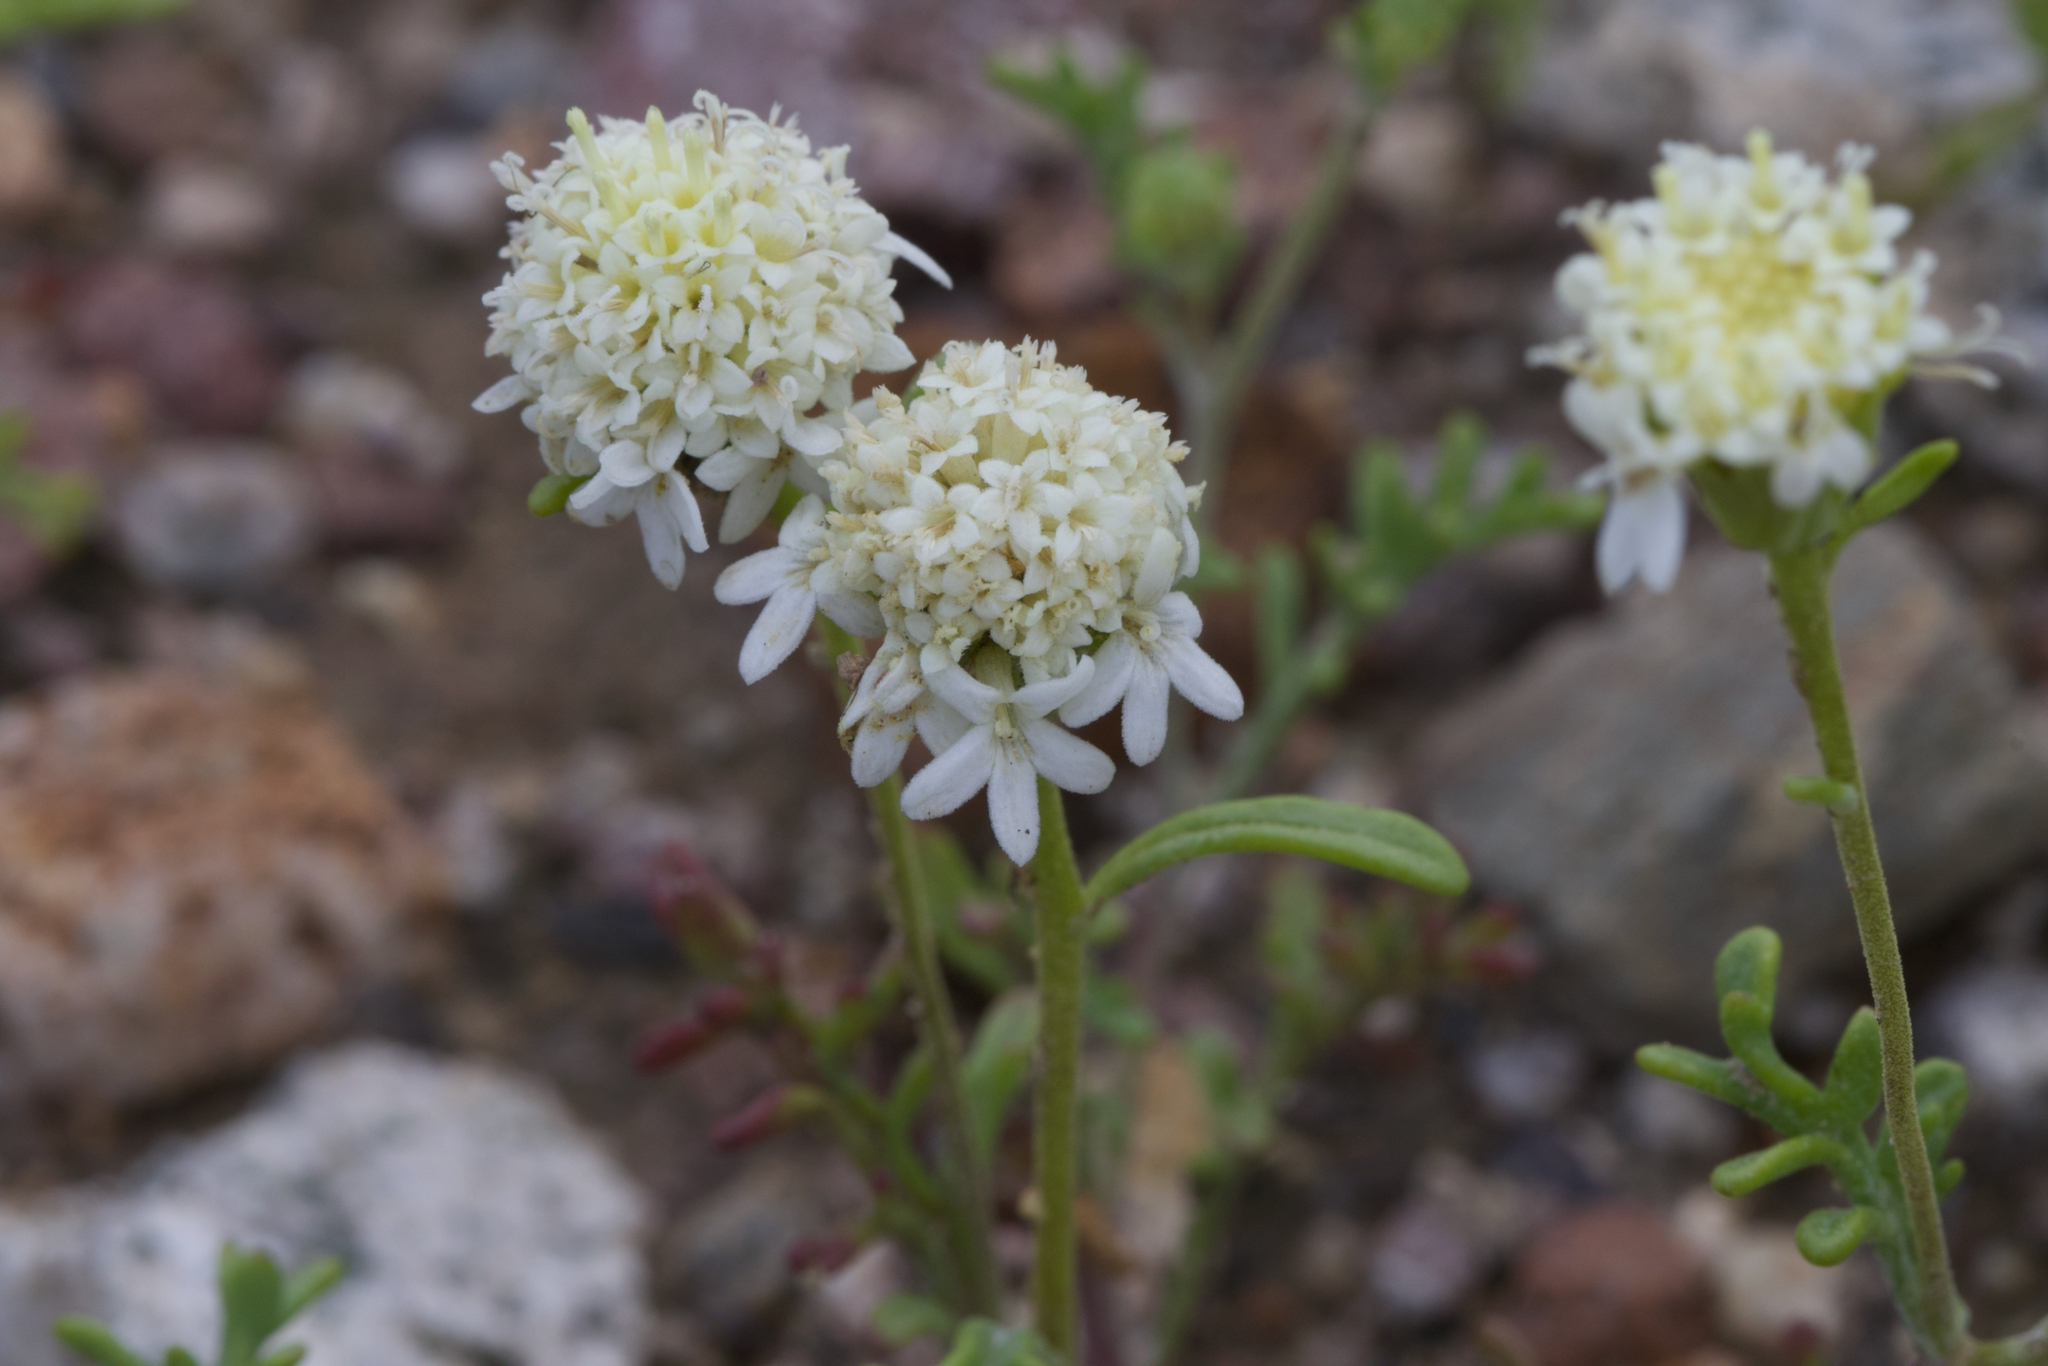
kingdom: Plantae
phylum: Tracheophyta
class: Magnoliopsida
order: Asterales
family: Asteraceae
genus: Chaenactis
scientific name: Chaenactis stevioides
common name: Desert pincushion
